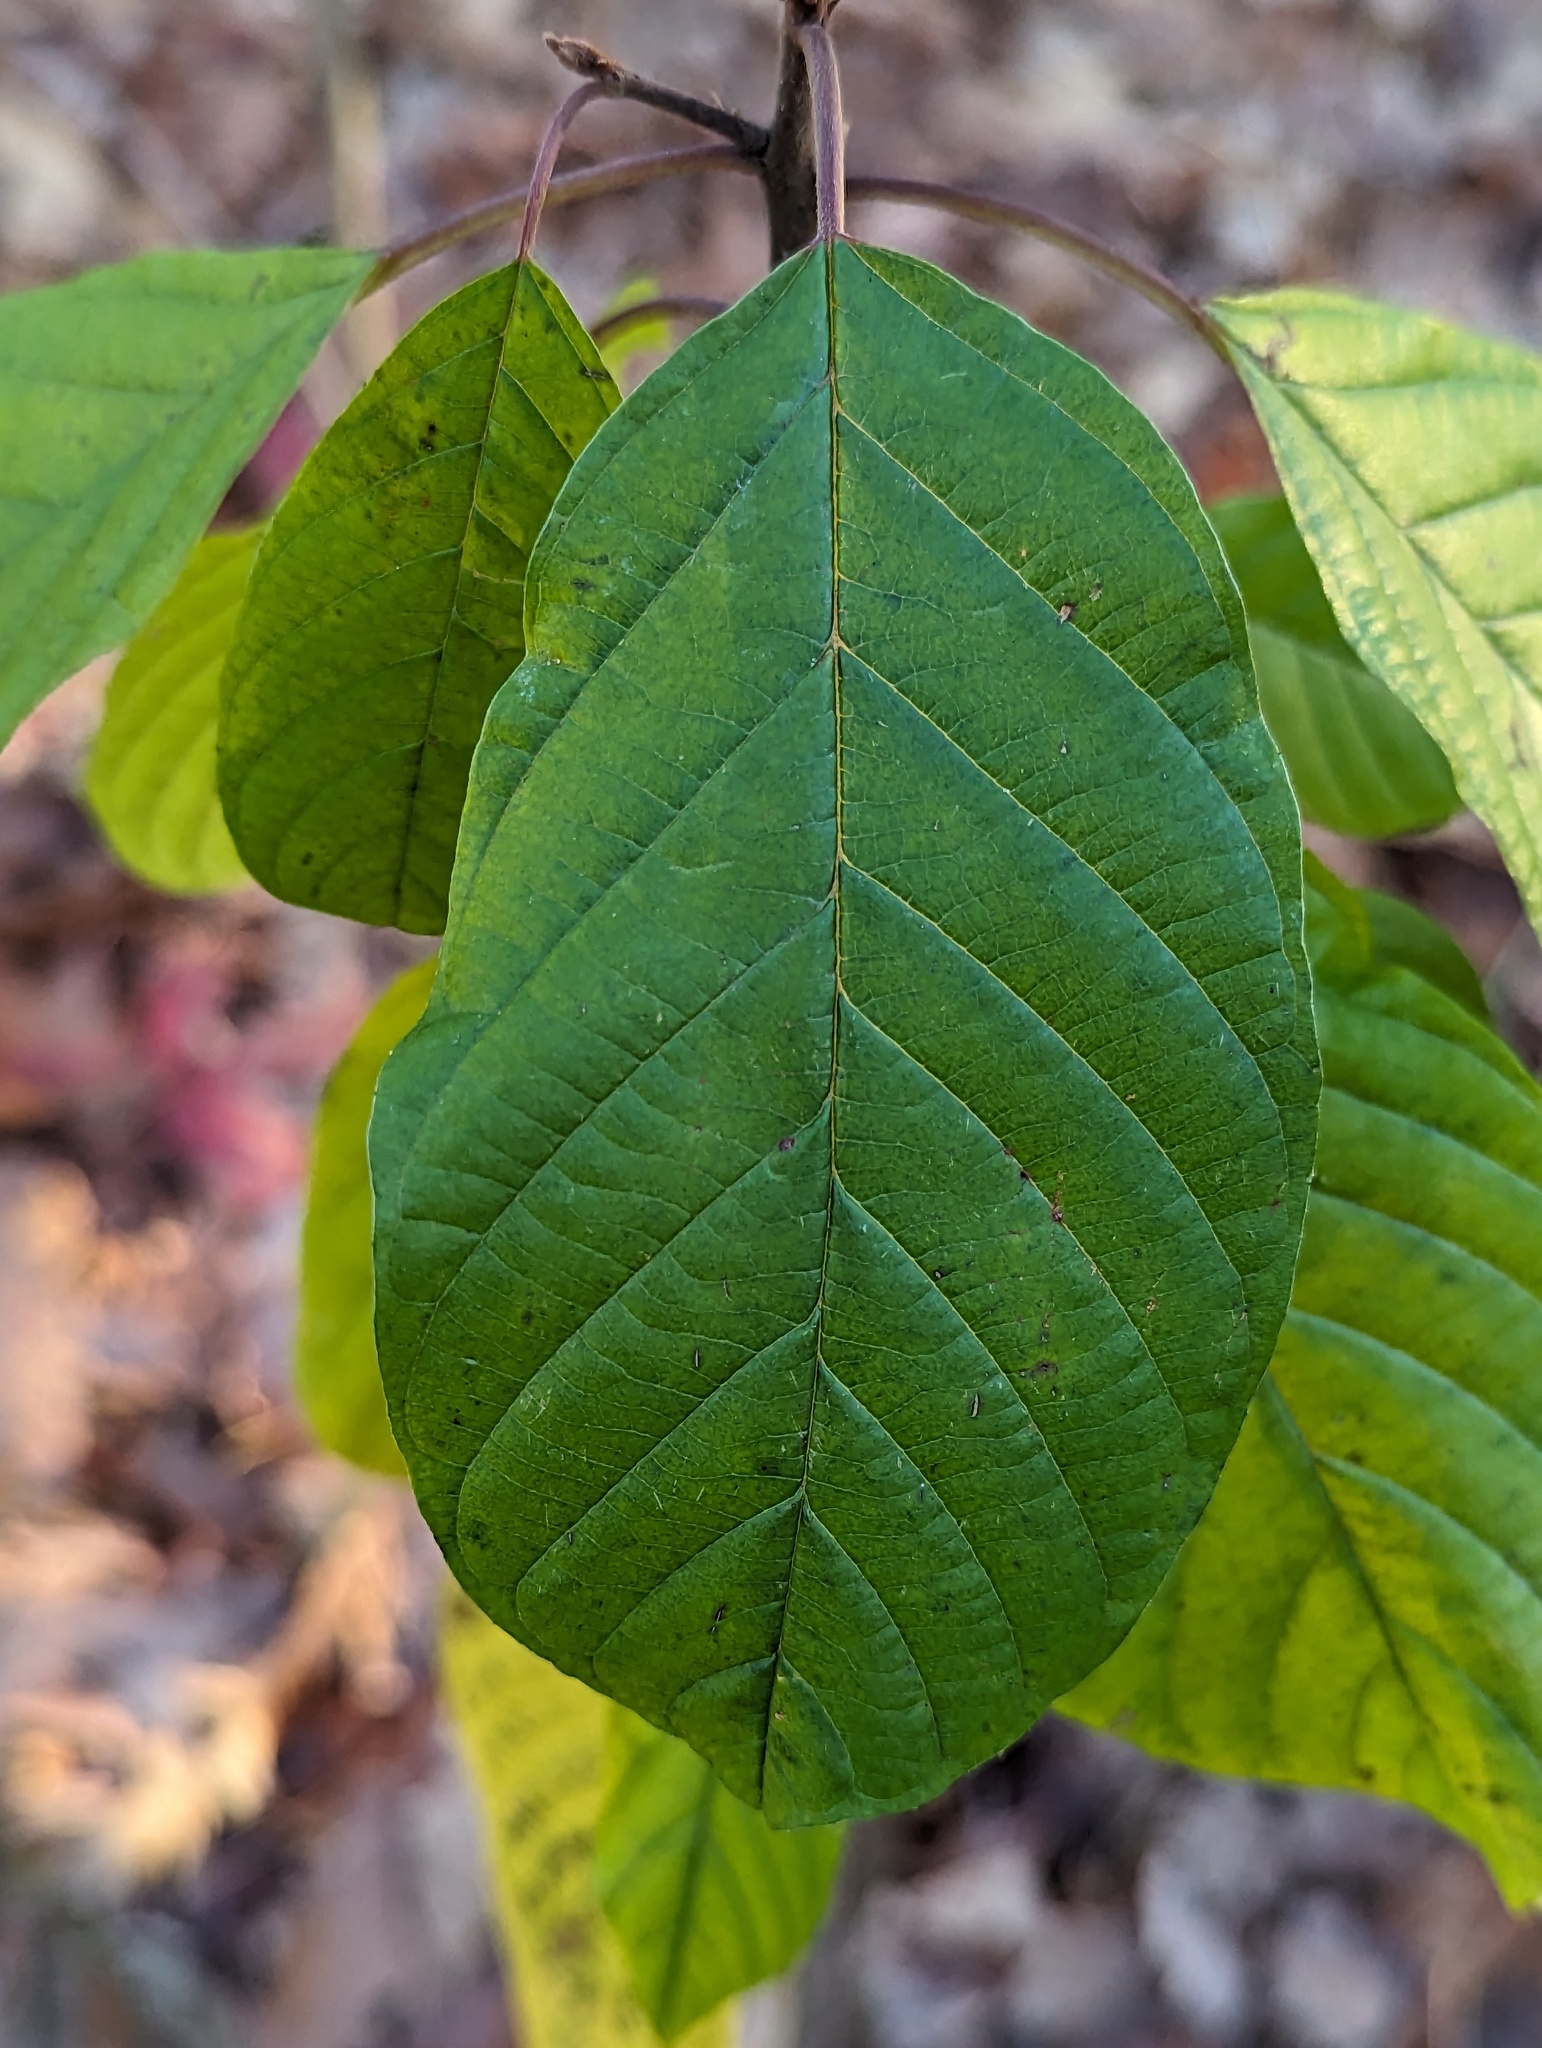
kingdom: Plantae
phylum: Tracheophyta
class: Magnoliopsida
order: Rosales
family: Rhamnaceae
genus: Frangula
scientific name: Frangula alnus
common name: Alder buckthorn
